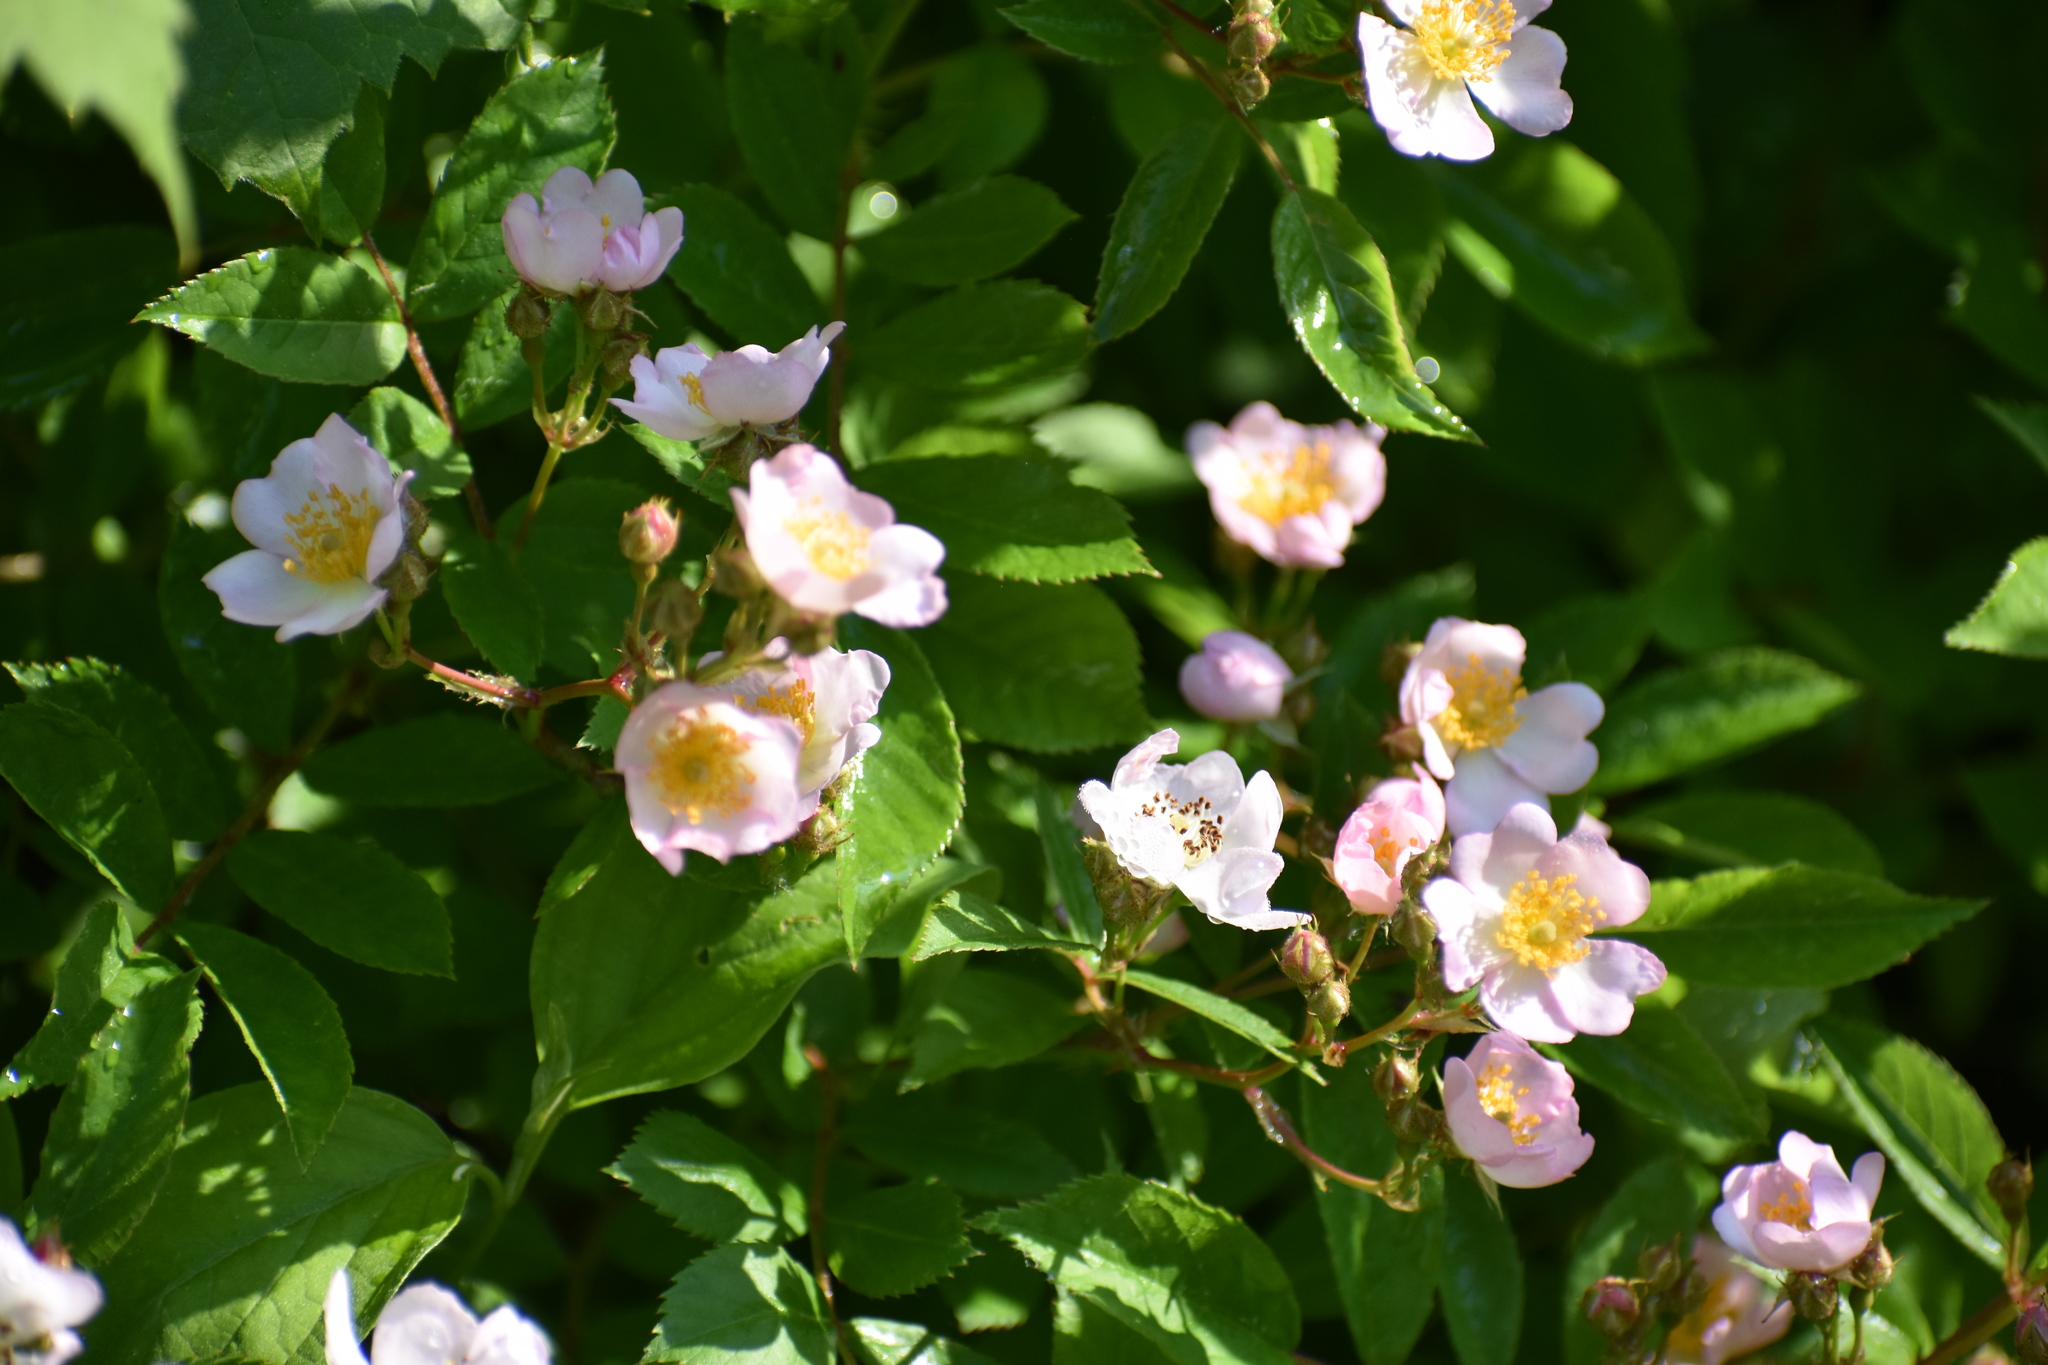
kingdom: Plantae
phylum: Tracheophyta
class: Magnoliopsida
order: Rosales
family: Rosaceae
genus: Rosa
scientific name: Rosa multiflora
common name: Multiflora rose
